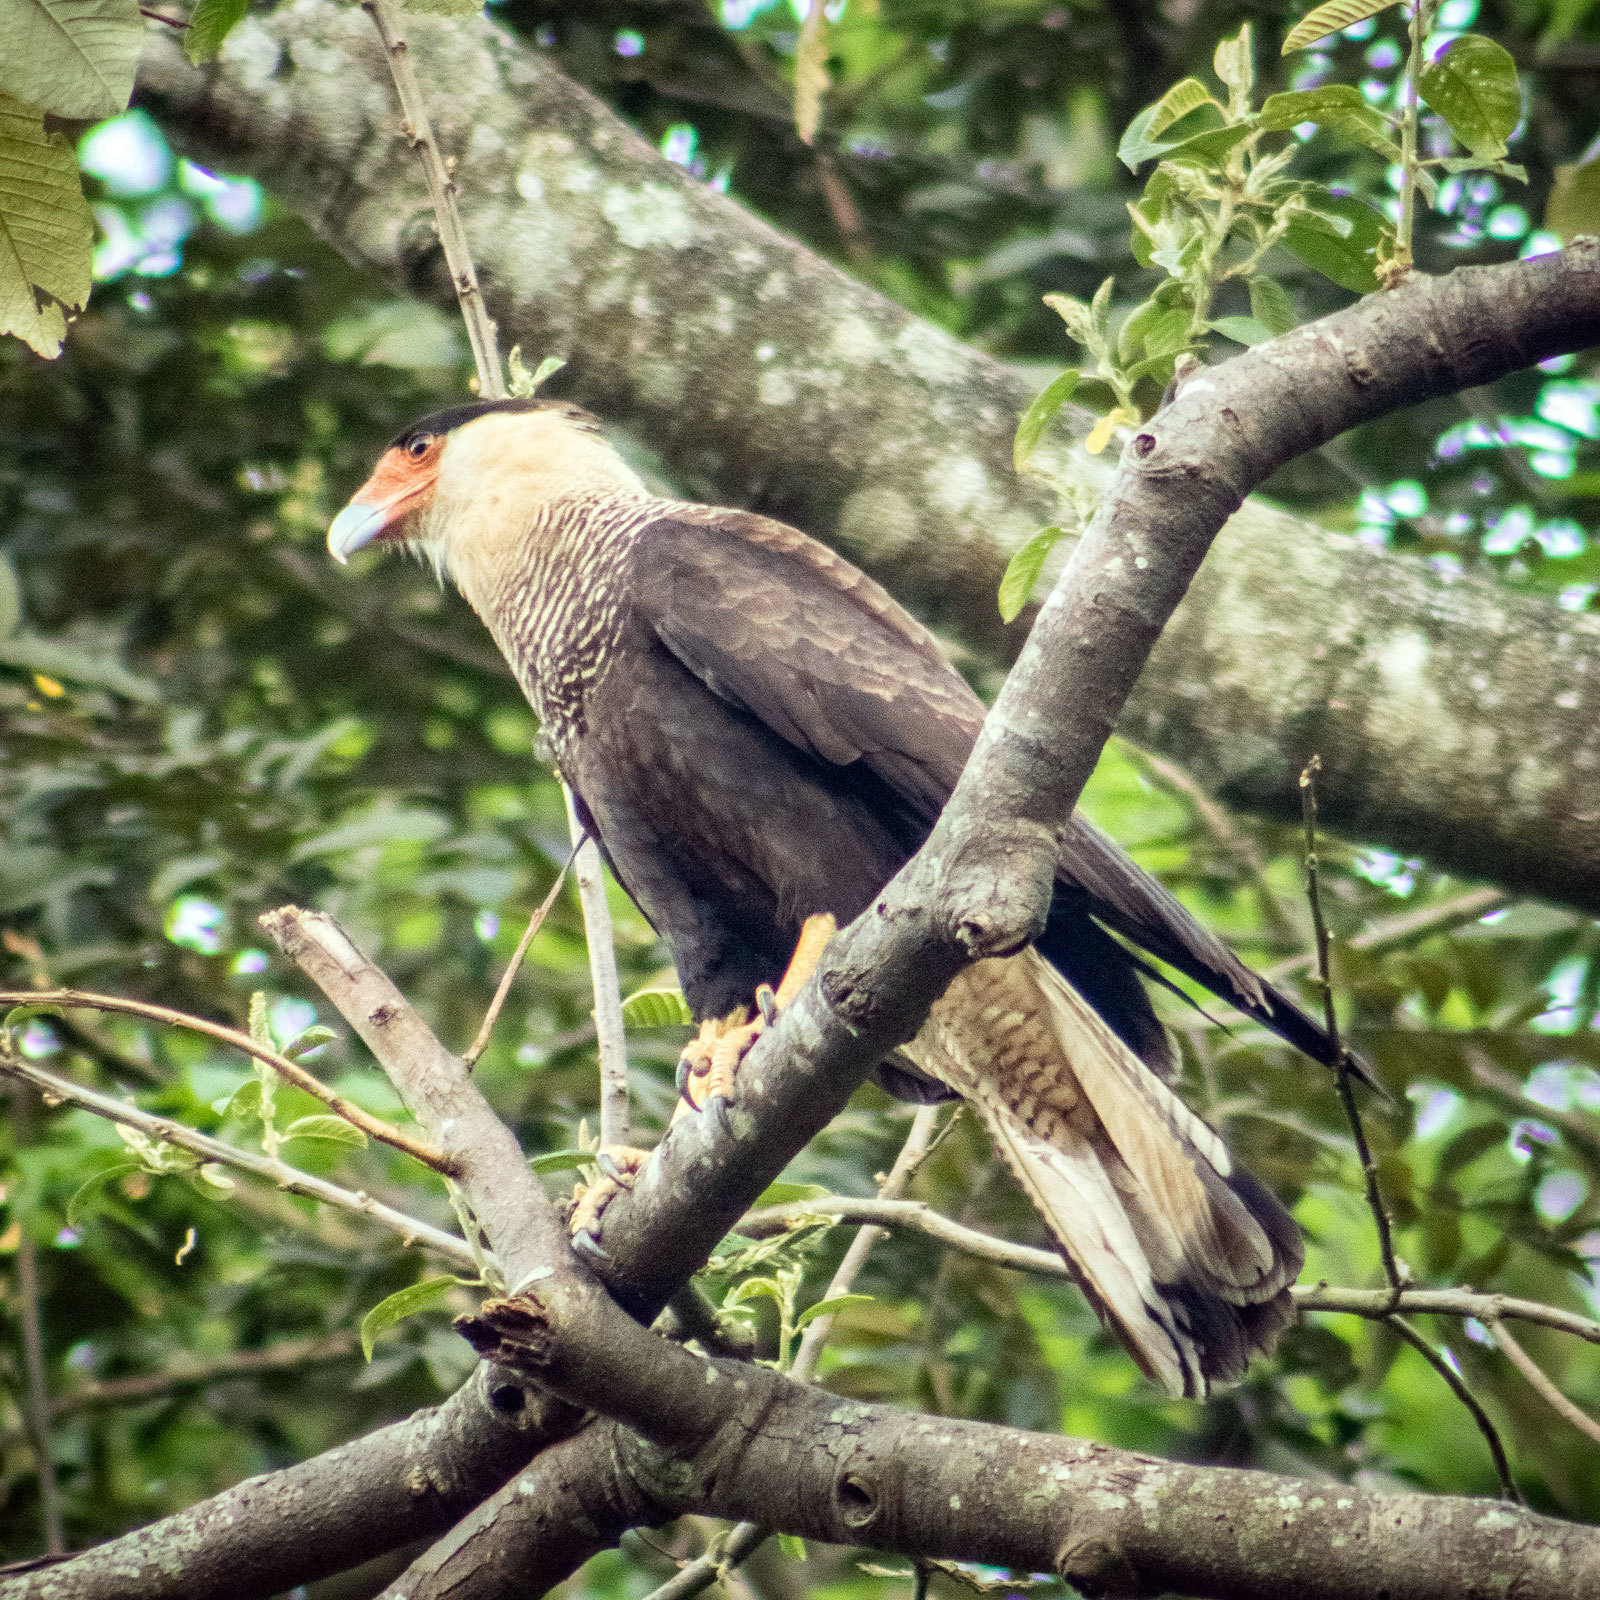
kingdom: Animalia
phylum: Chordata
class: Aves
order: Falconiformes
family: Falconidae
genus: Caracara
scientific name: Caracara plancus
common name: Southern caracara
